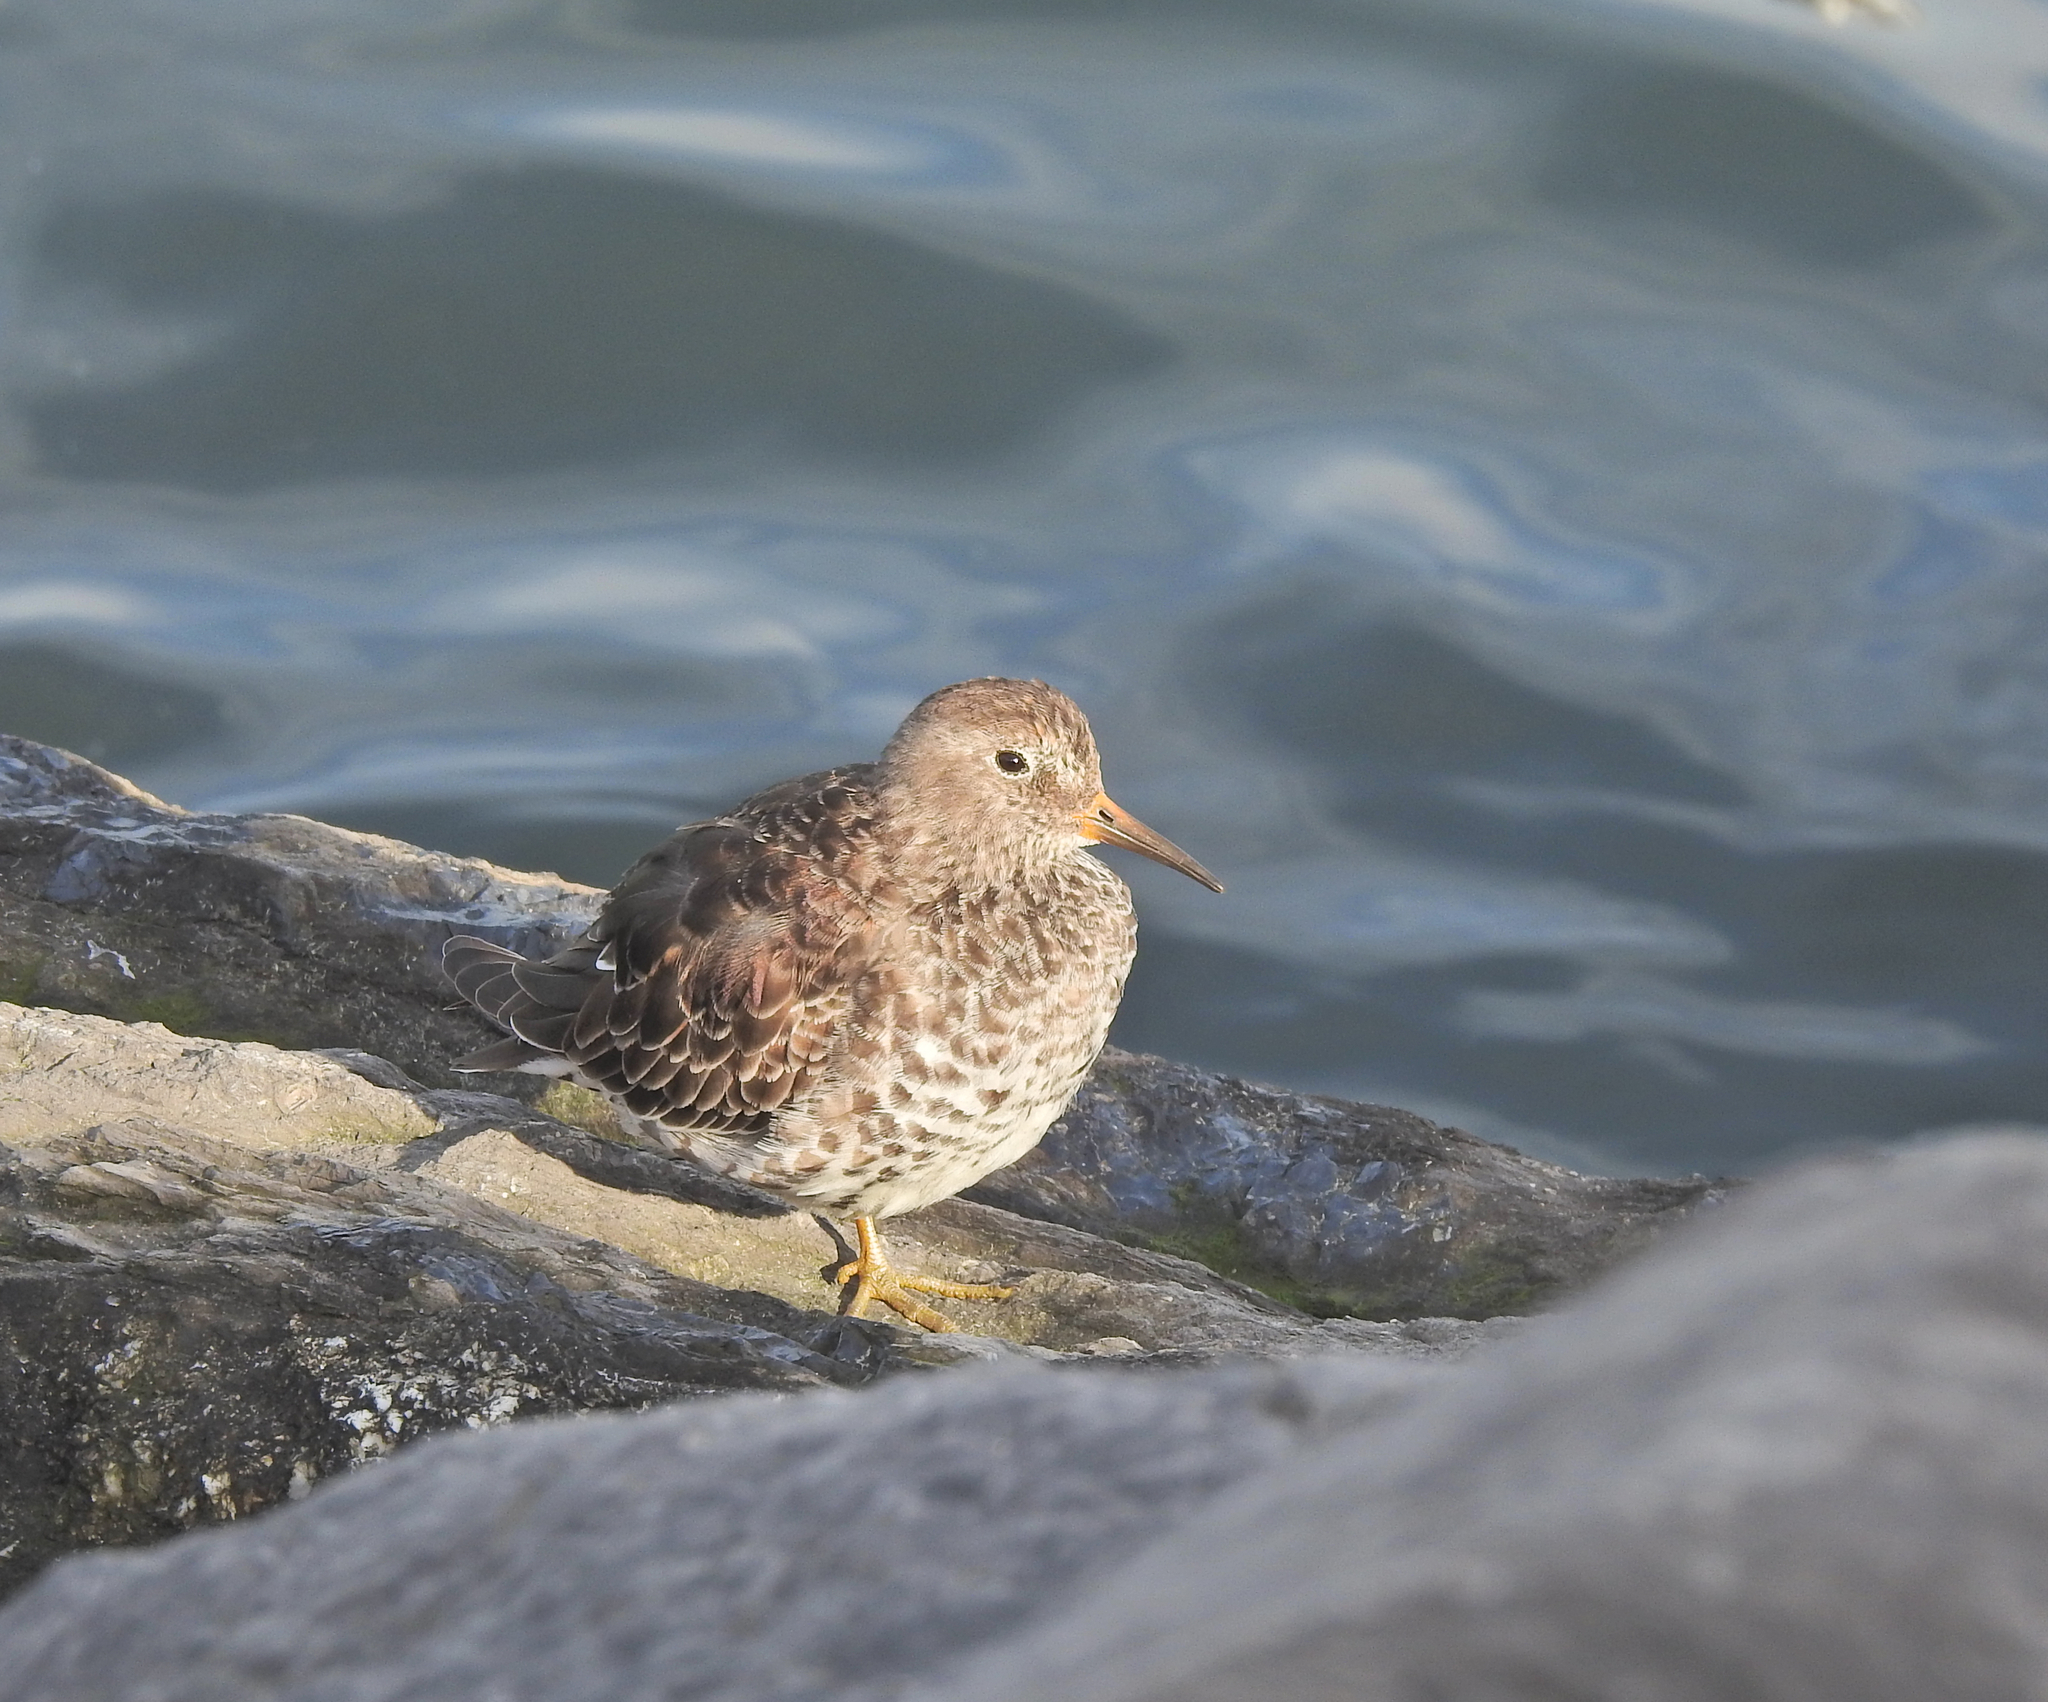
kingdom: Animalia
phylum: Chordata
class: Aves
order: Charadriiformes
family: Scolopacidae
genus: Calidris
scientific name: Calidris maritima
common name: Purple sandpiper
